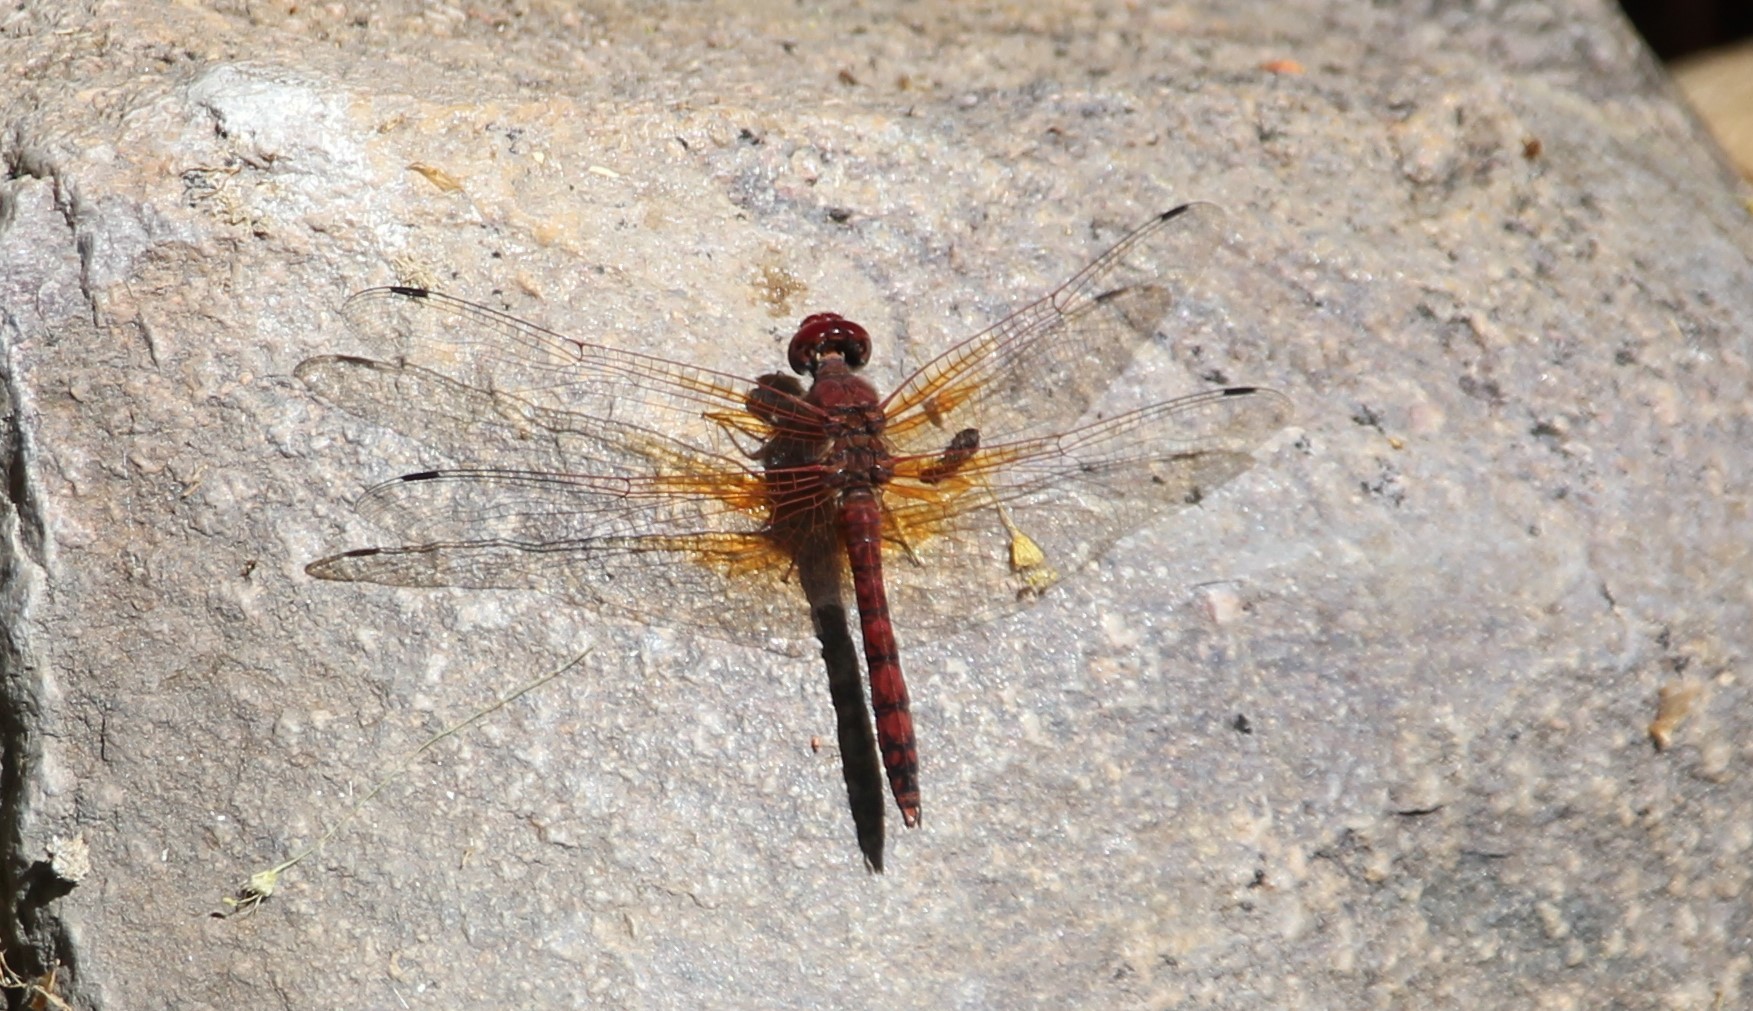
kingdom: Animalia
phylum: Arthropoda
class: Insecta
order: Odonata
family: Libellulidae
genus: Paltothemis
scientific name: Paltothemis lineatipes
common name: Red rock skimmer
